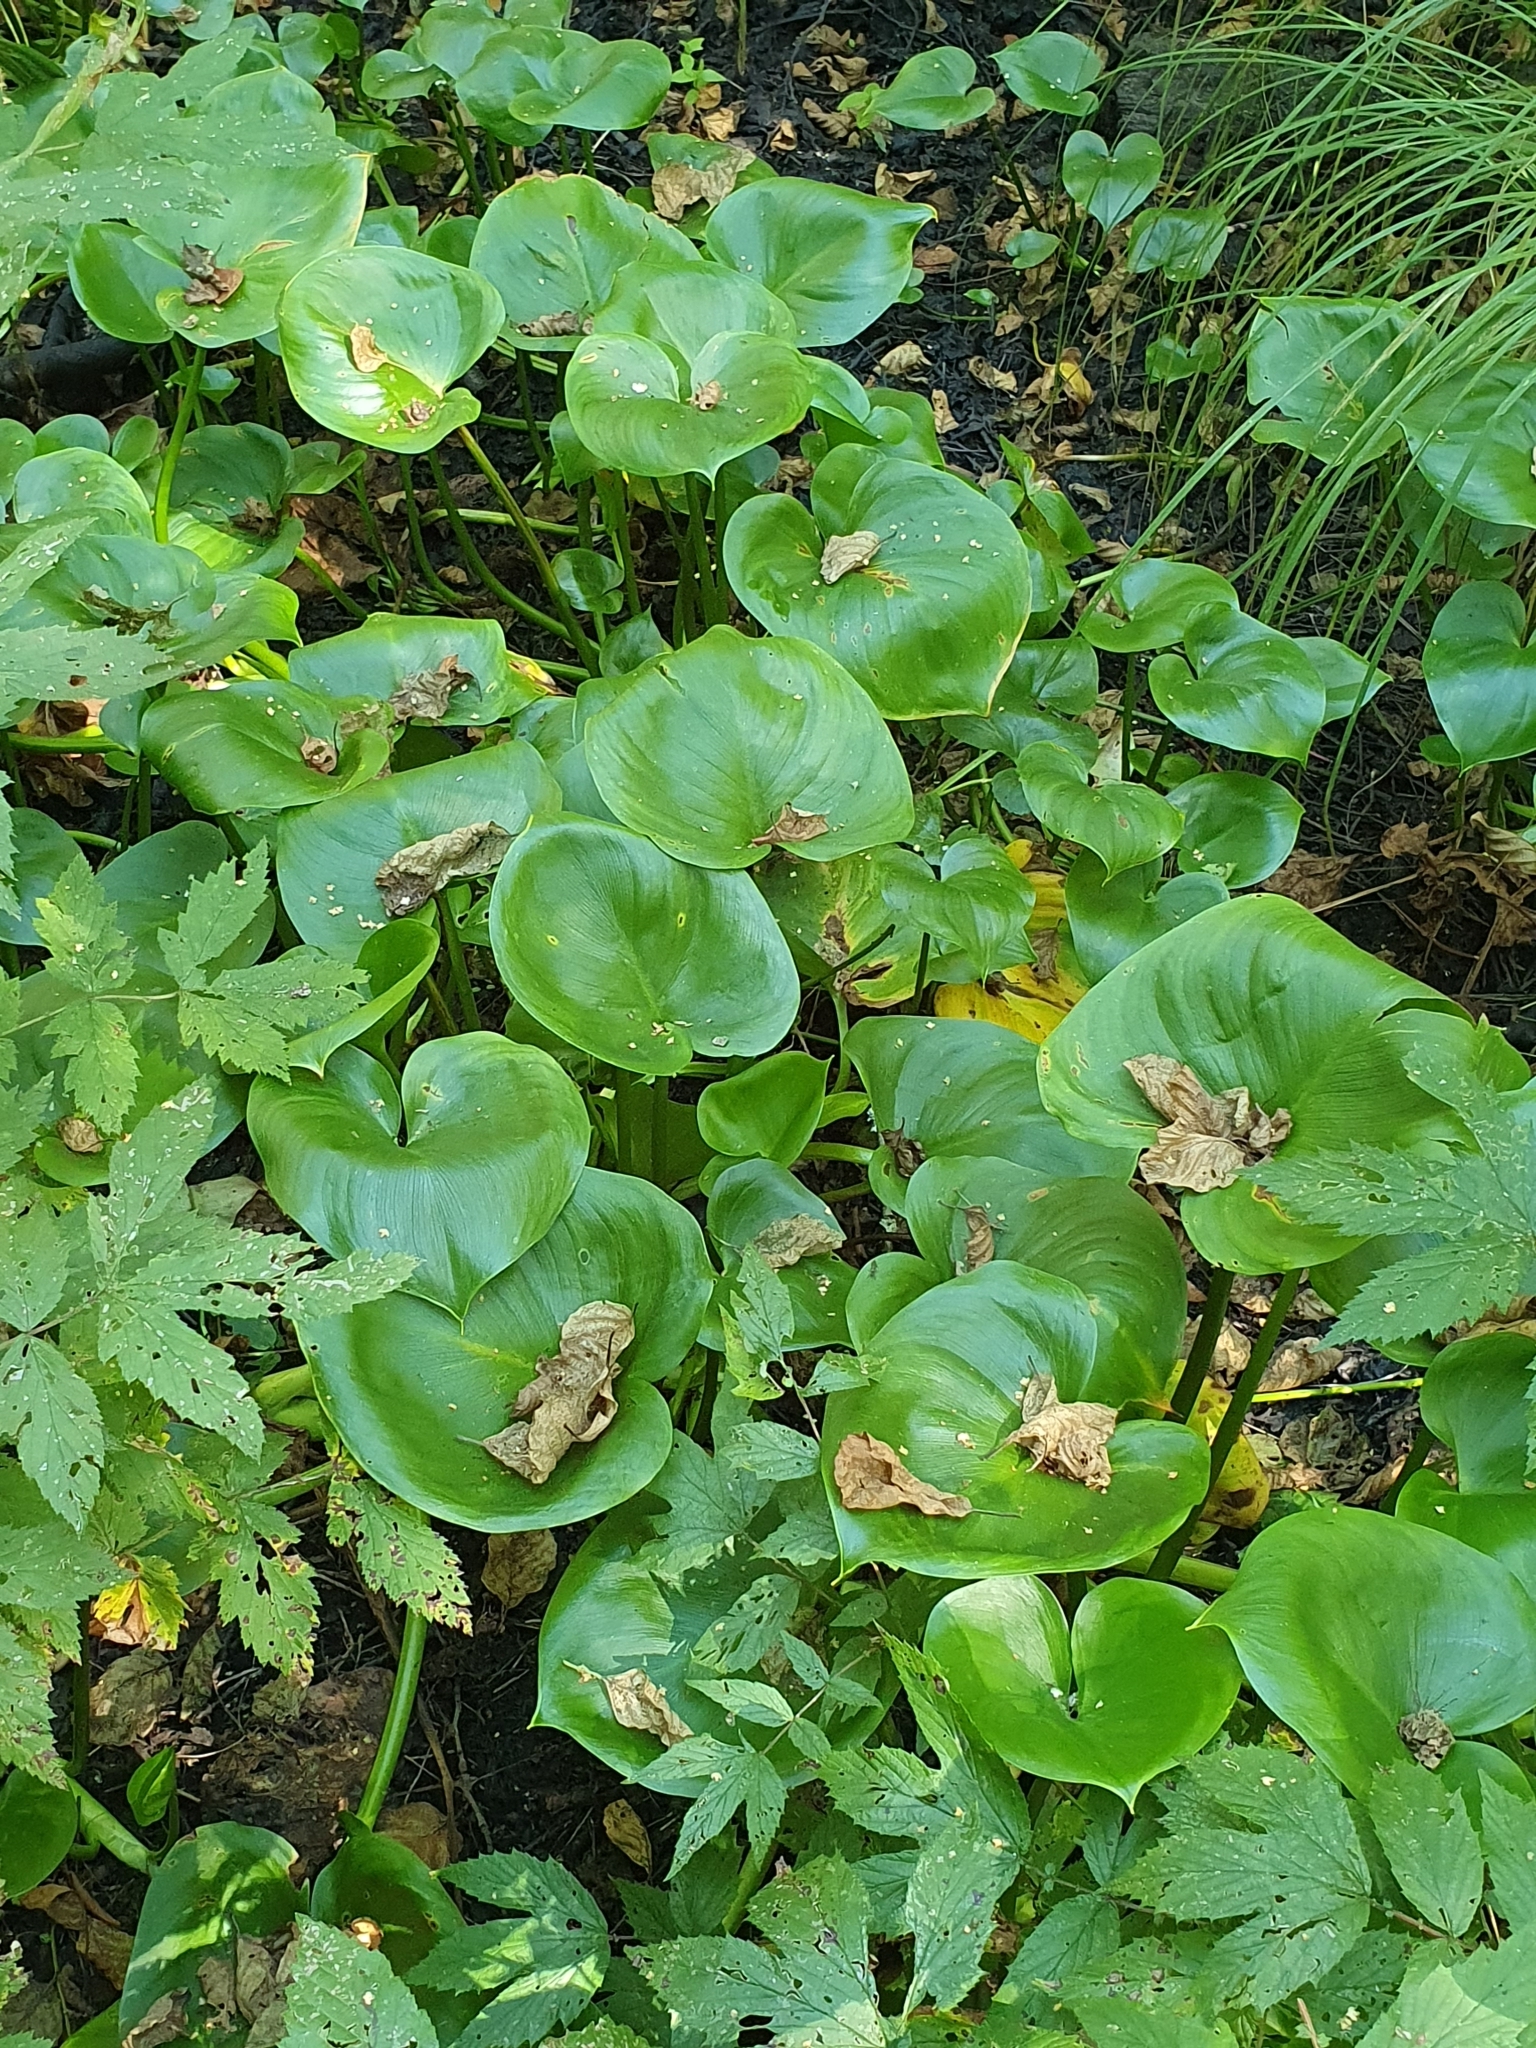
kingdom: Plantae
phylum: Tracheophyta
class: Liliopsida
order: Alismatales
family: Araceae
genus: Calla
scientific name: Calla palustris
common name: Bog arum
